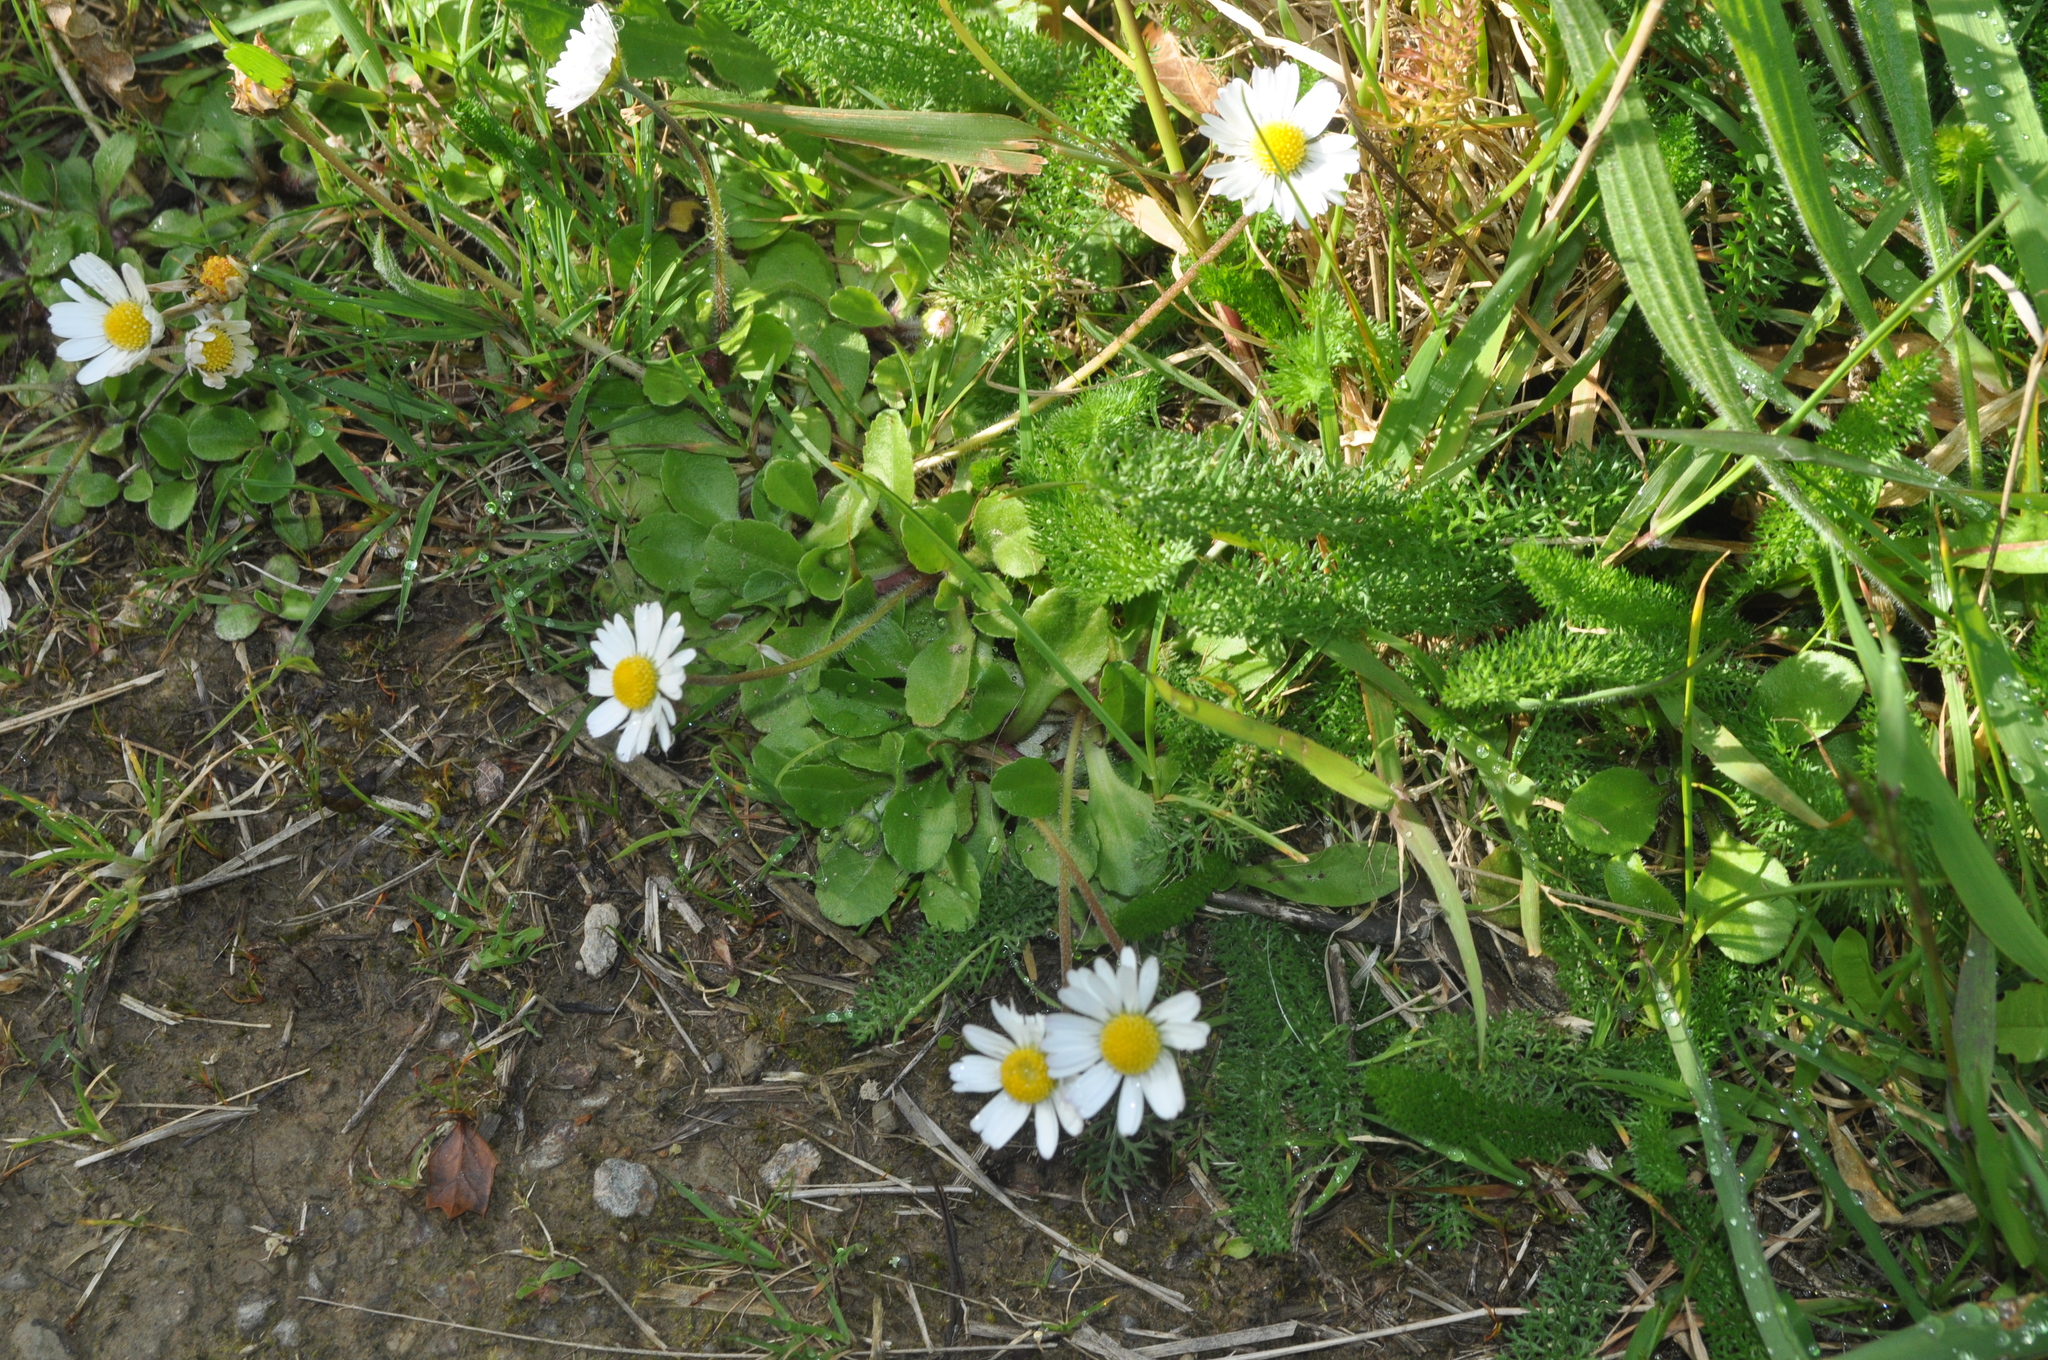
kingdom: Plantae
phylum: Tracheophyta
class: Magnoliopsida
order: Asterales
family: Asteraceae
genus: Bellis
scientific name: Bellis perennis
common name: Lawndaisy
